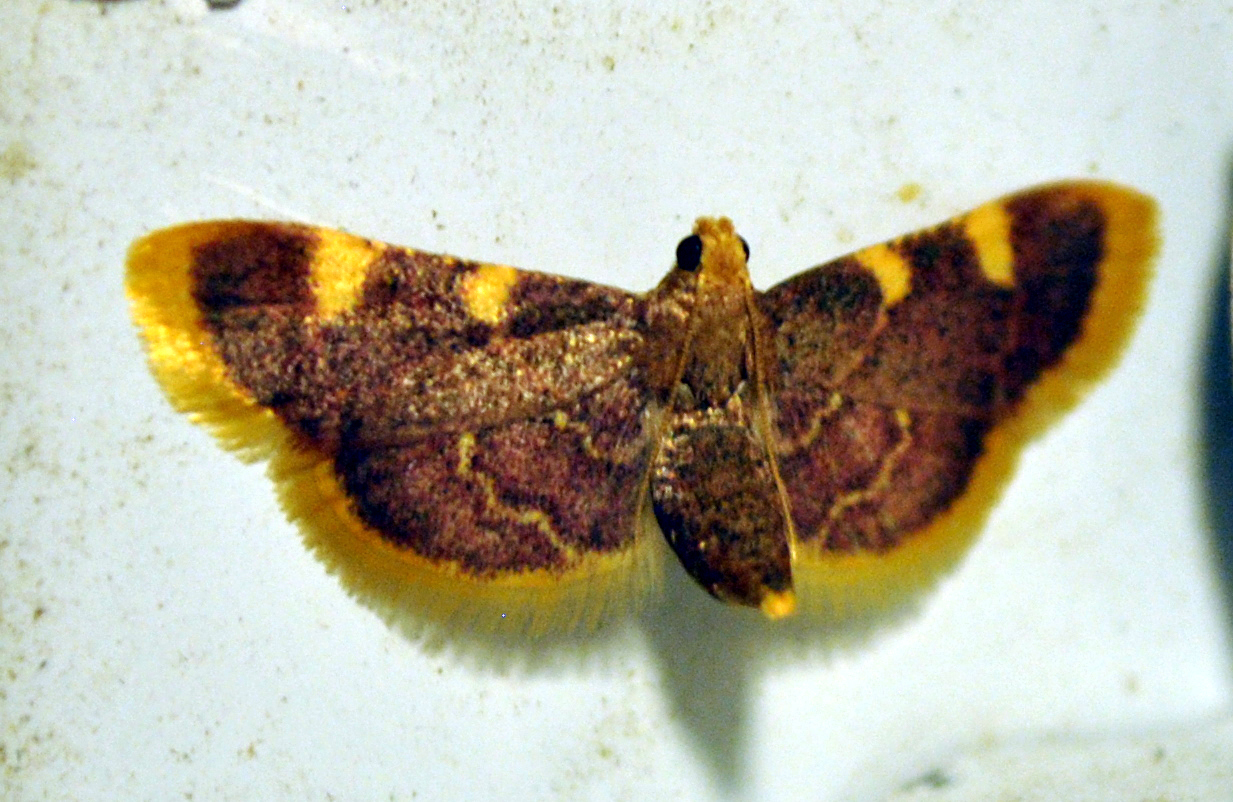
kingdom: Animalia
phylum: Arthropoda
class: Insecta
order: Lepidoptera
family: Pyralidae
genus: Hypsopygia
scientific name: Hypsopygia costalis
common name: Gold triangle
